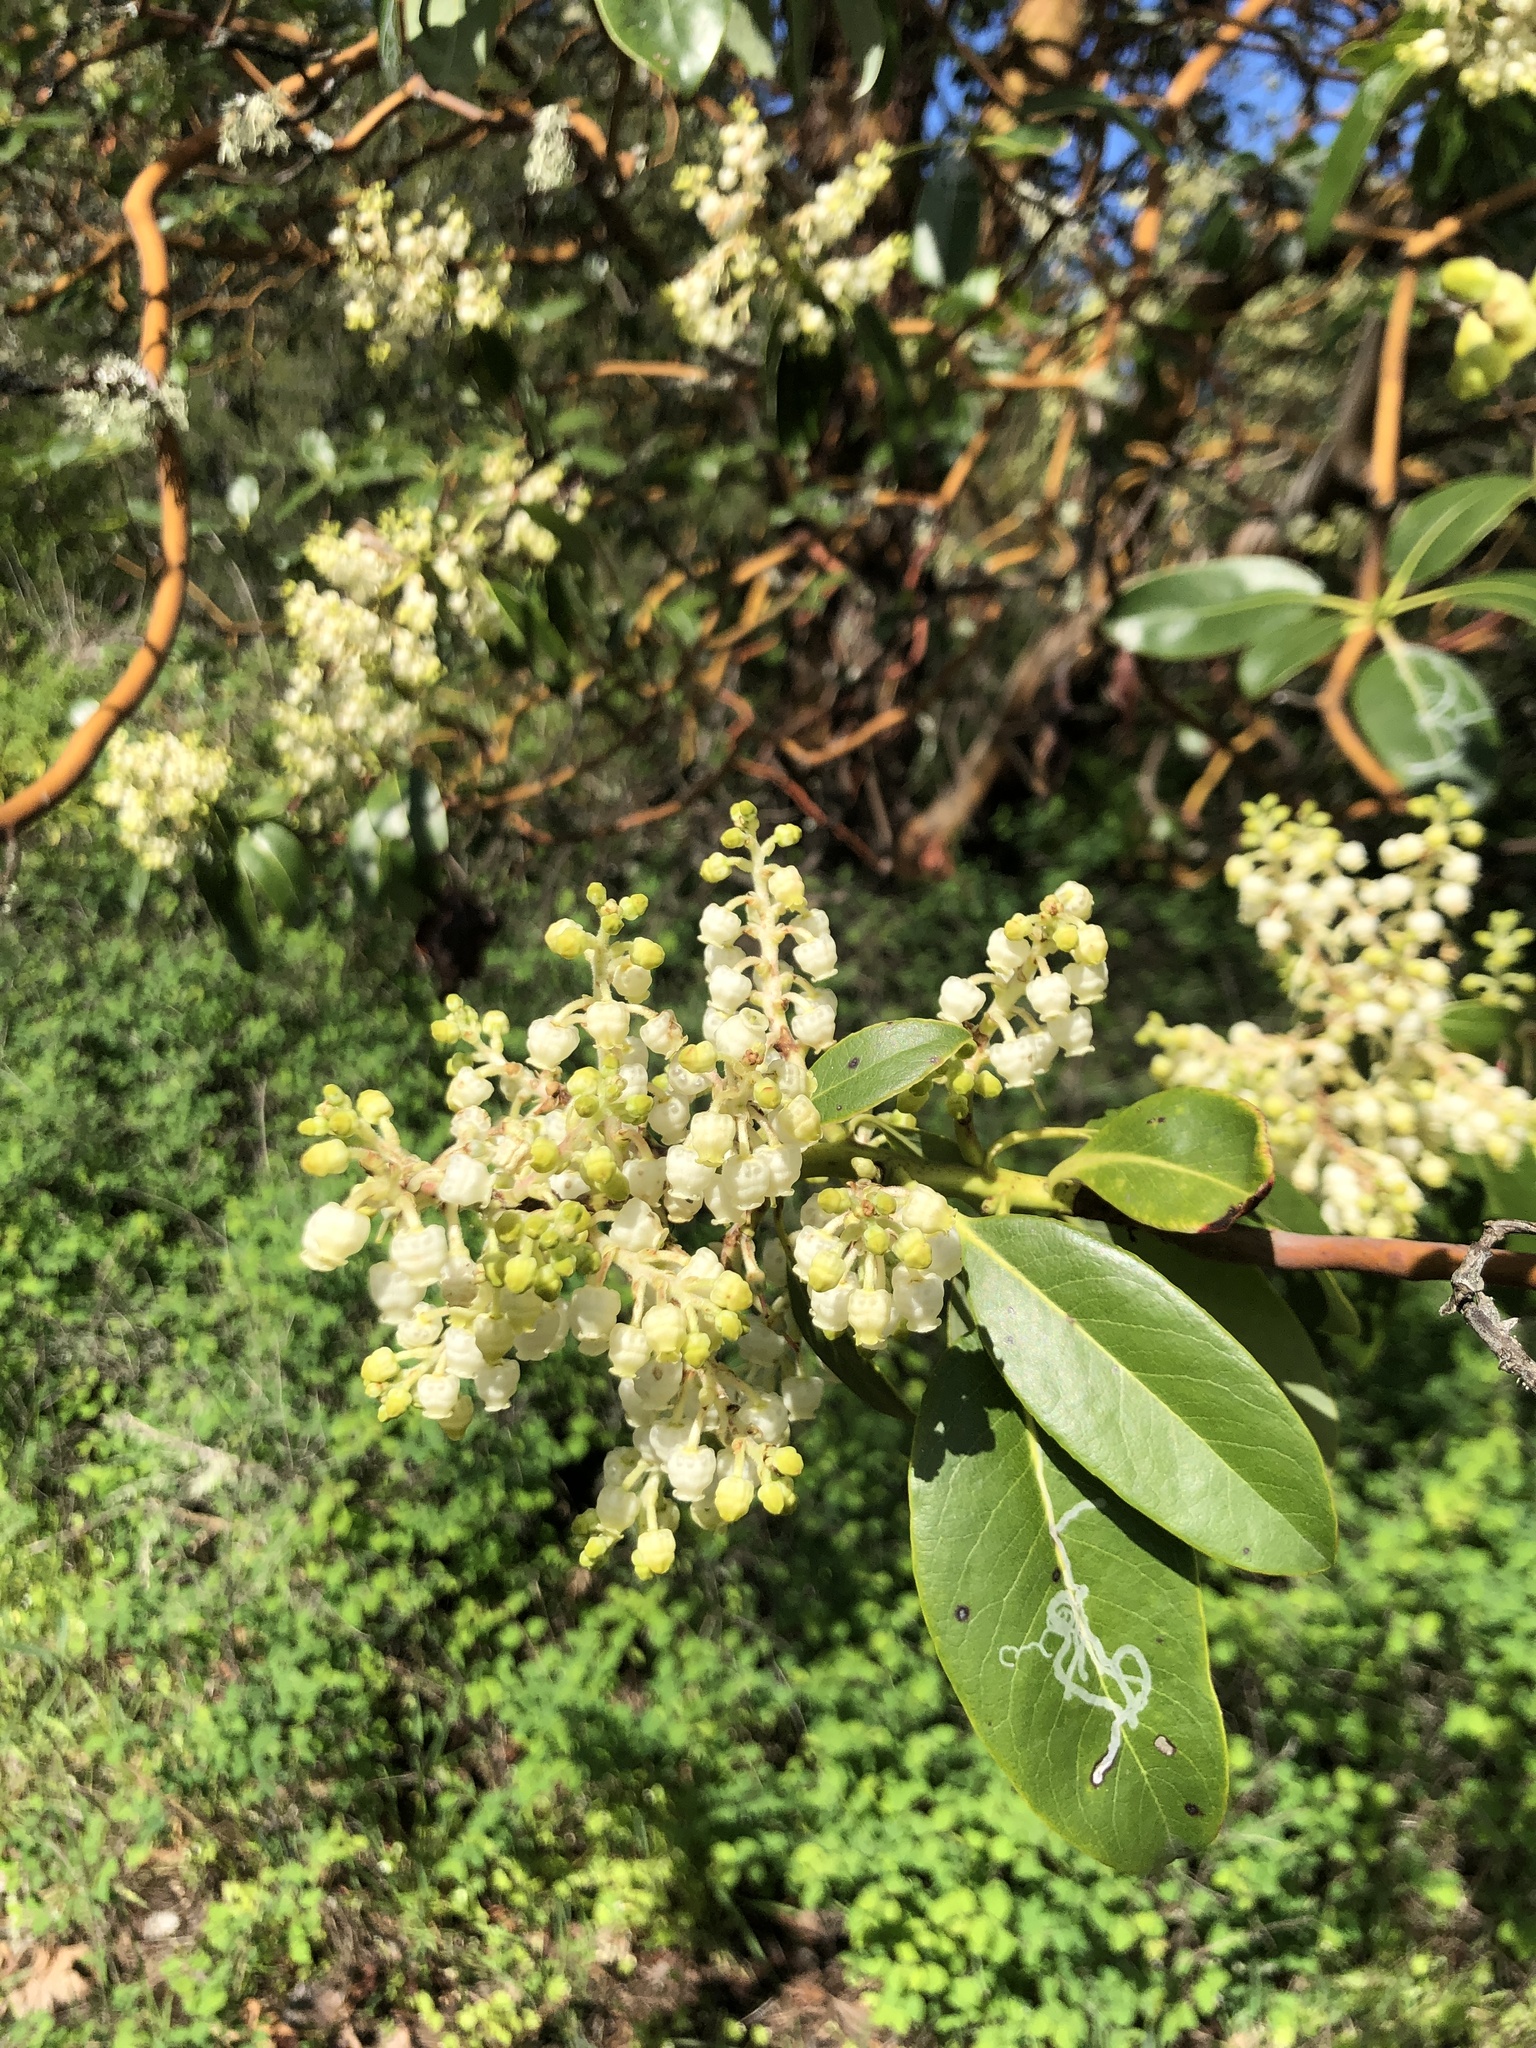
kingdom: Plantae
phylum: Tracheophyta
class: Magnoliopsida
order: Ericales
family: Ericaceae
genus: Arbutus
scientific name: Arbutus menziesii
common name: Pacific madrone
